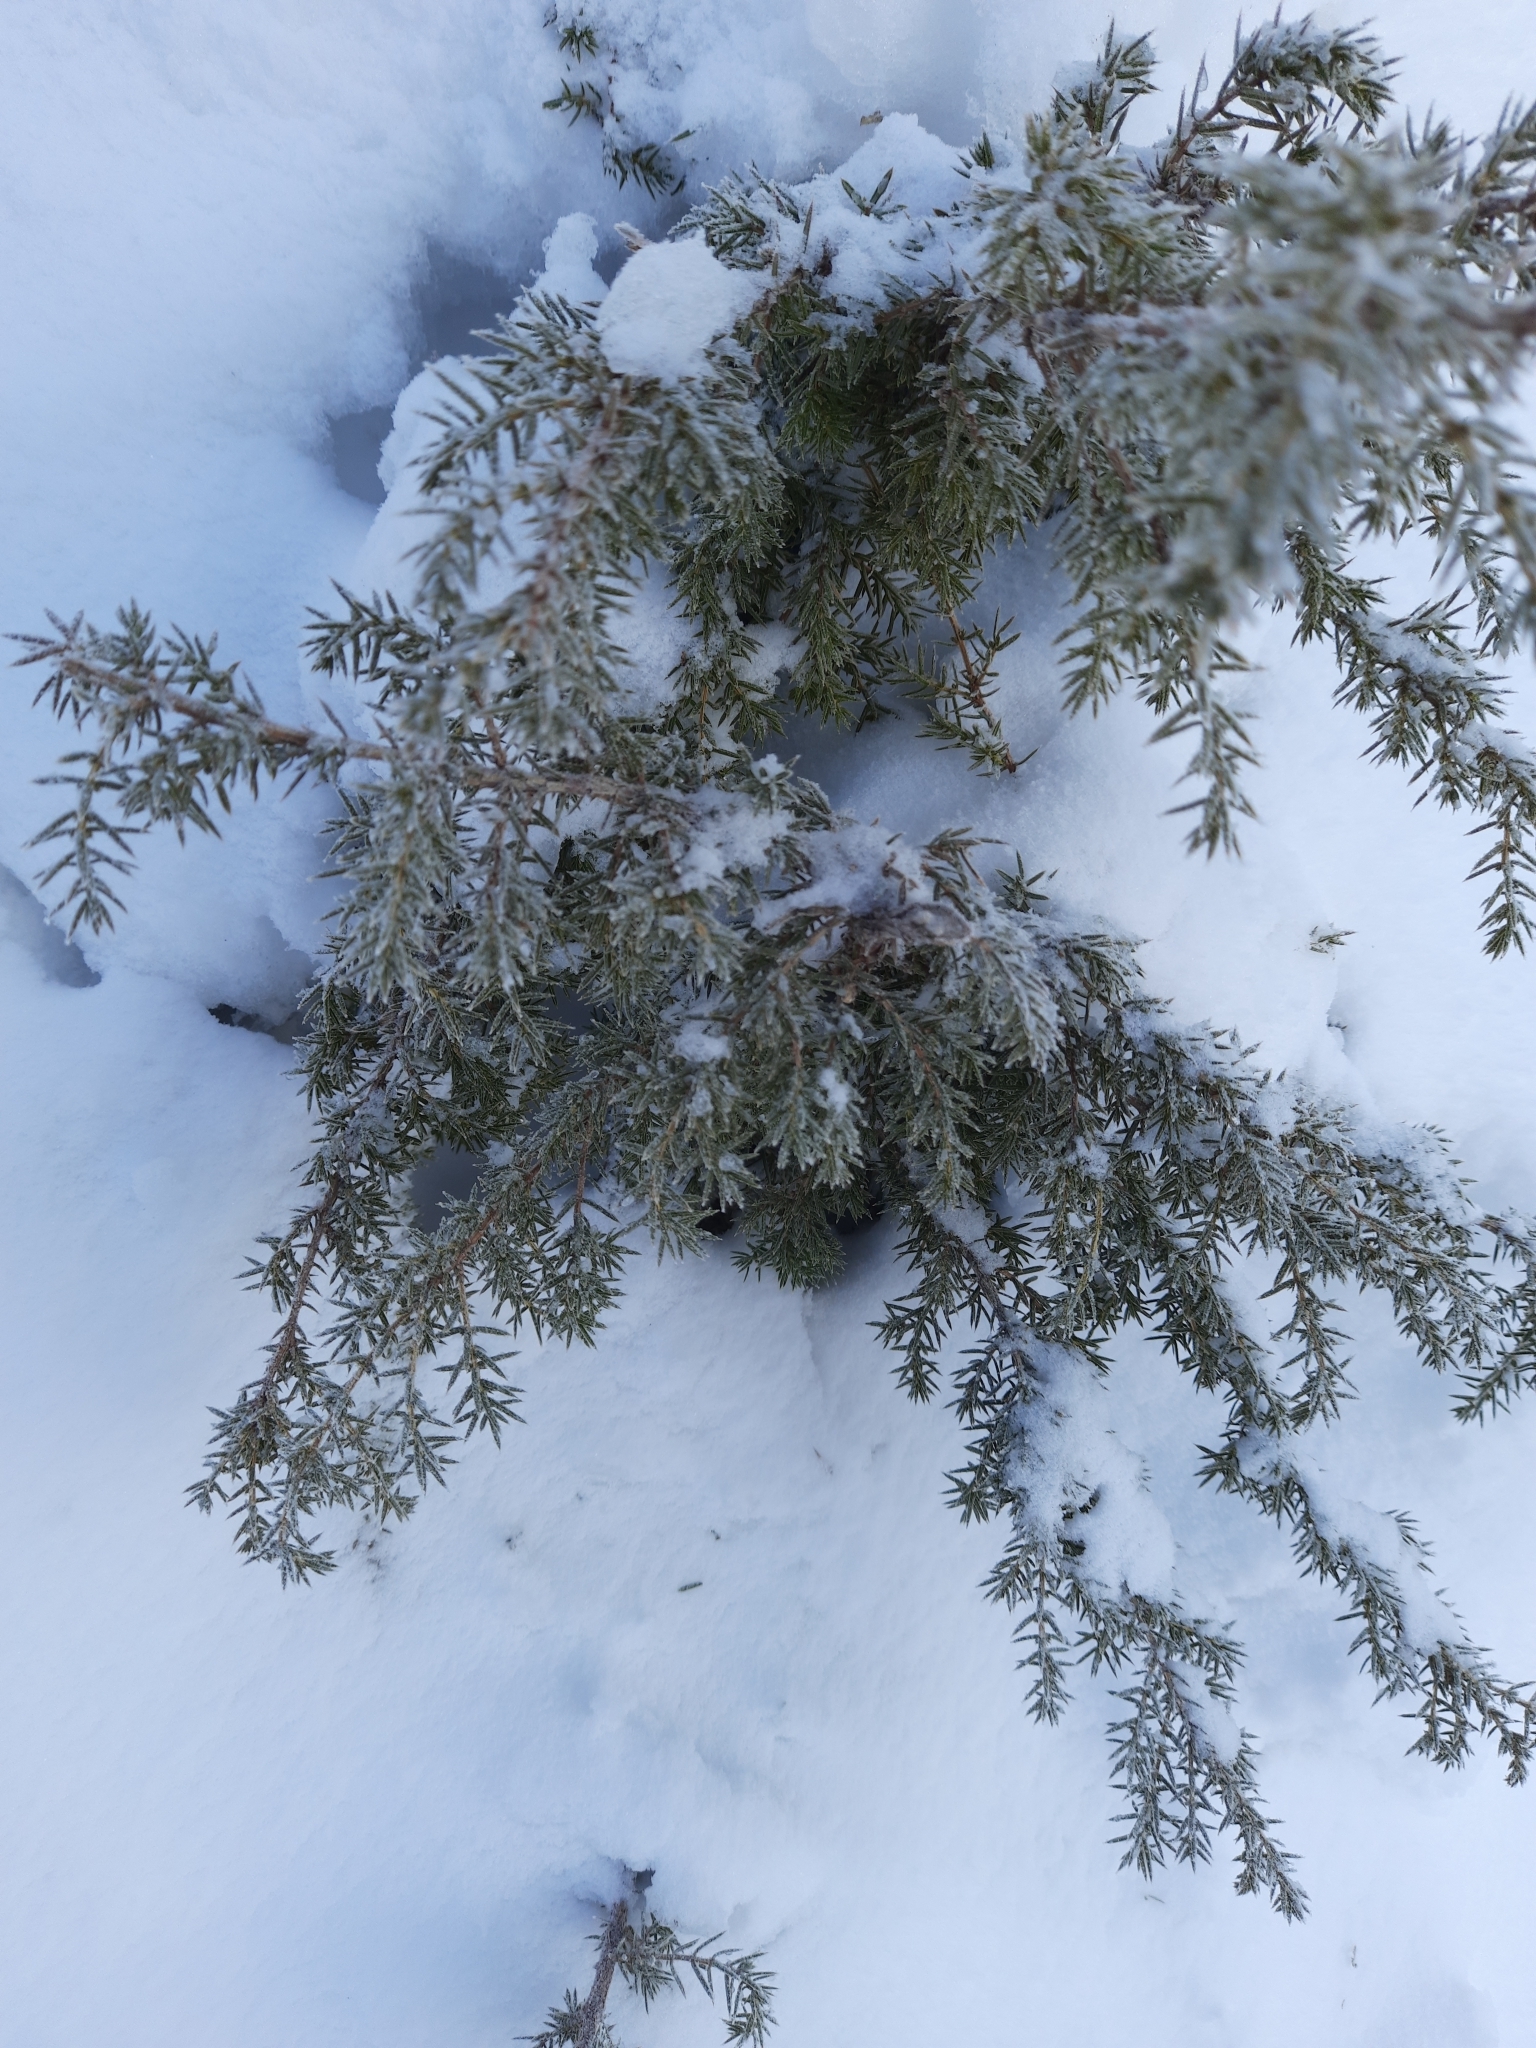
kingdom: Plantae
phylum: Tracheophyta
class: Pinopsida
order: Pinales
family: Cupressaceae
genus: Juniperus
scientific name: Juniperus communis
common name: Common juniper
